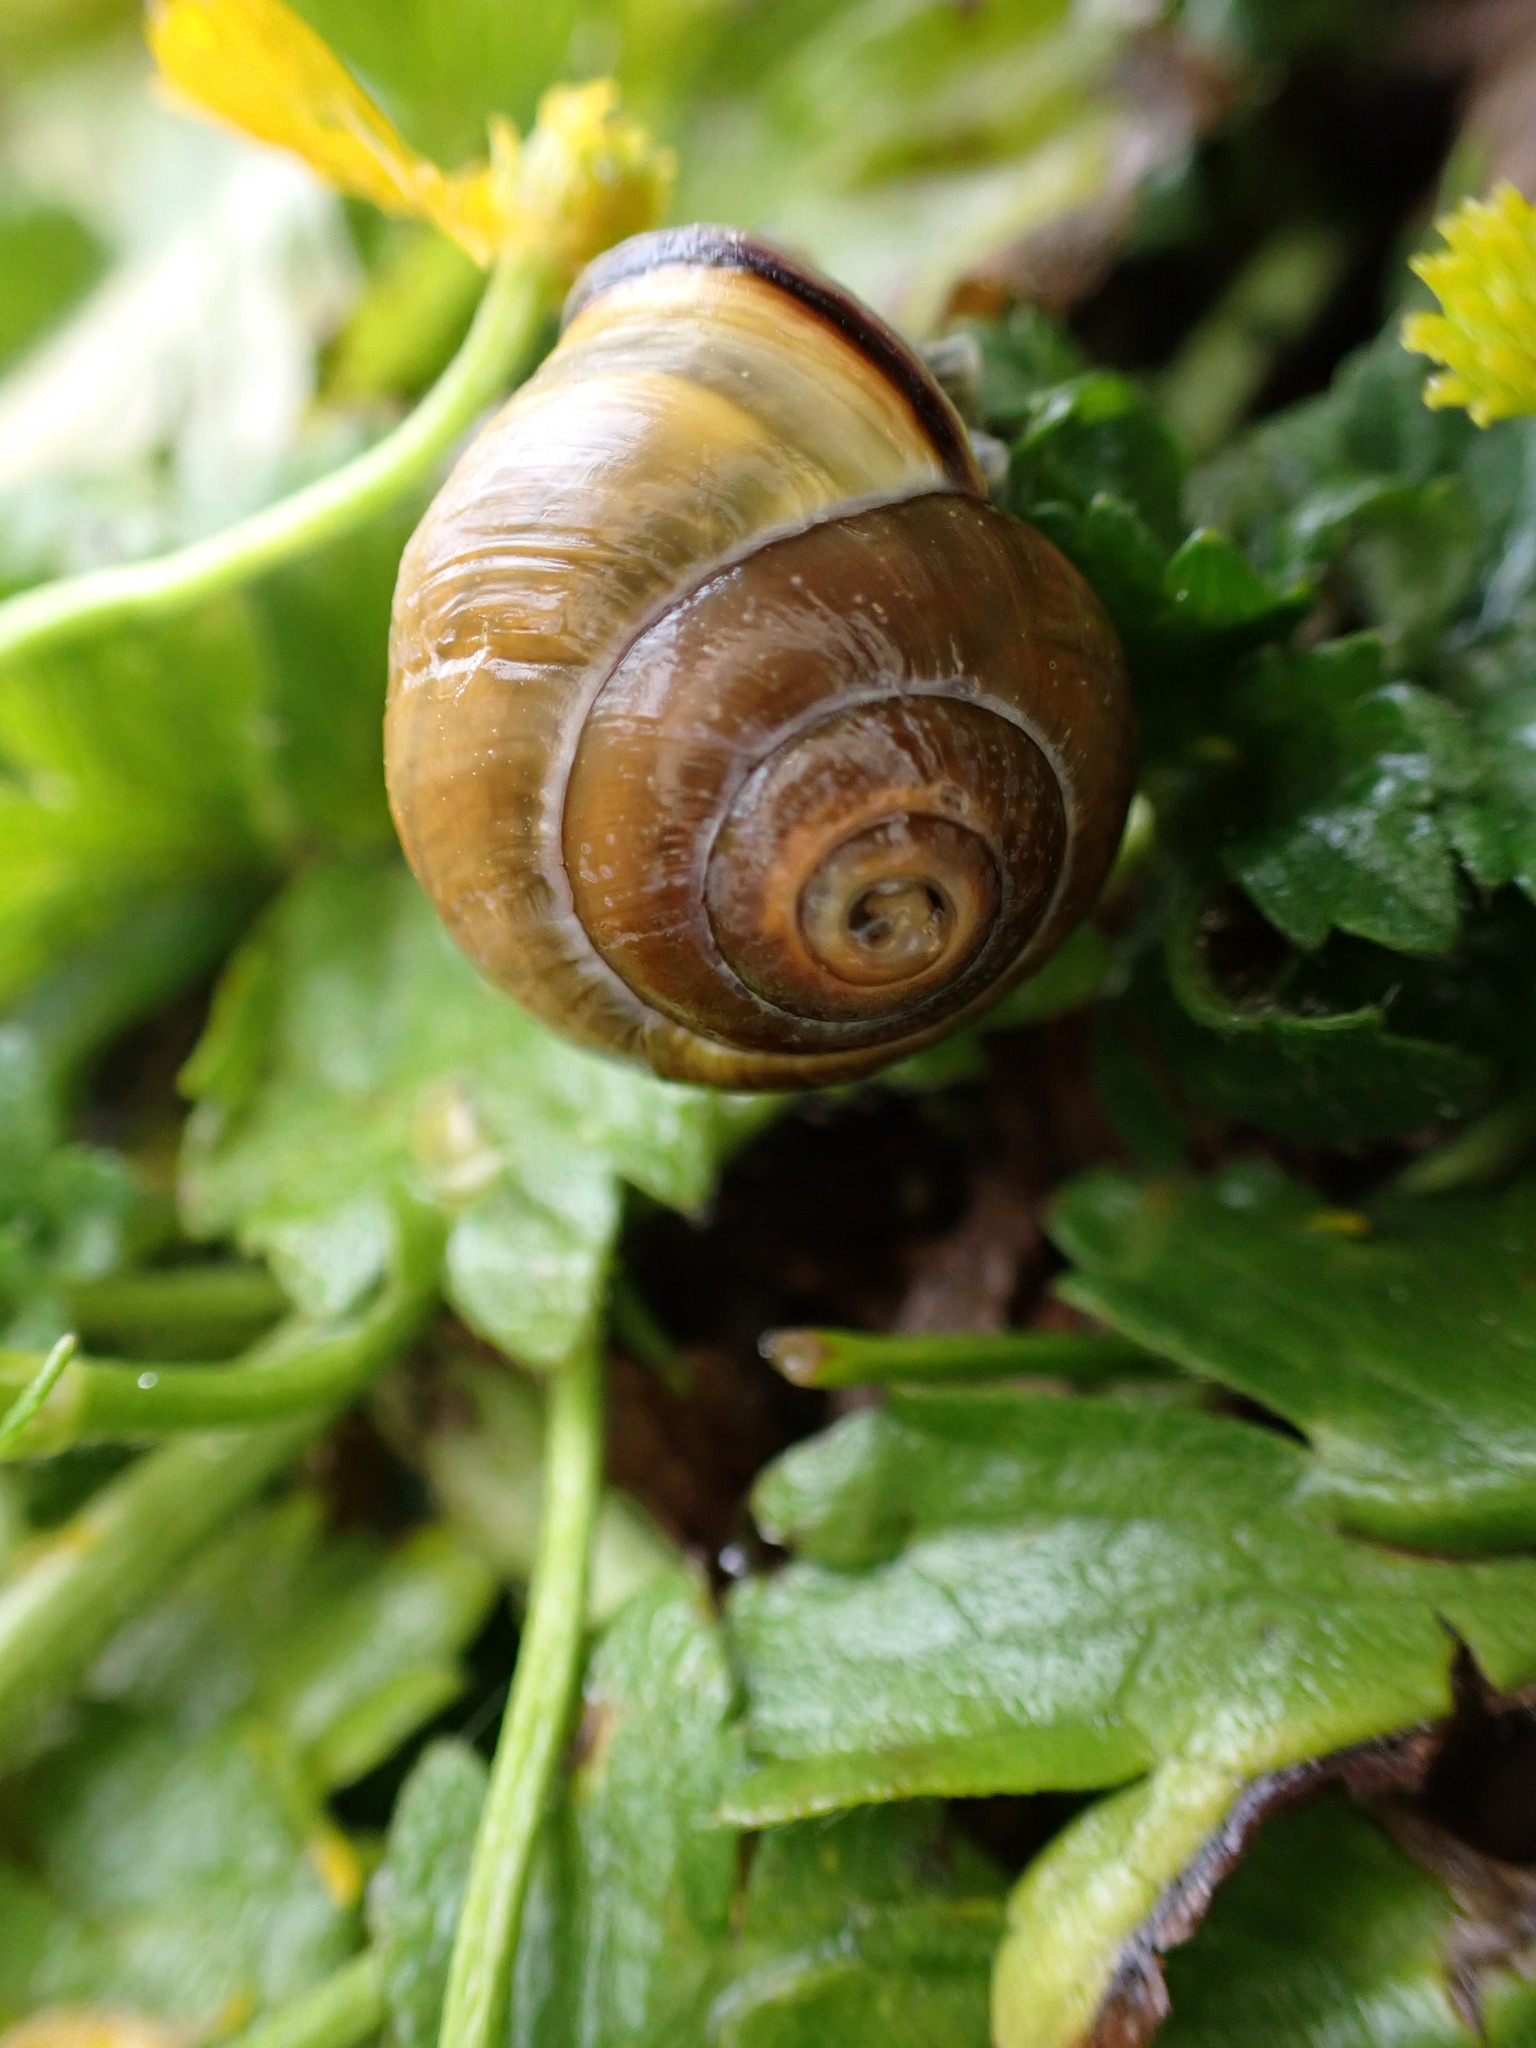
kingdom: Animalia
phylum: Mollusca
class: Gastropoda
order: Stylommatophora
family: Helicidae
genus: Cepaea
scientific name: Cepaea nemoralis
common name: Grovesnail
